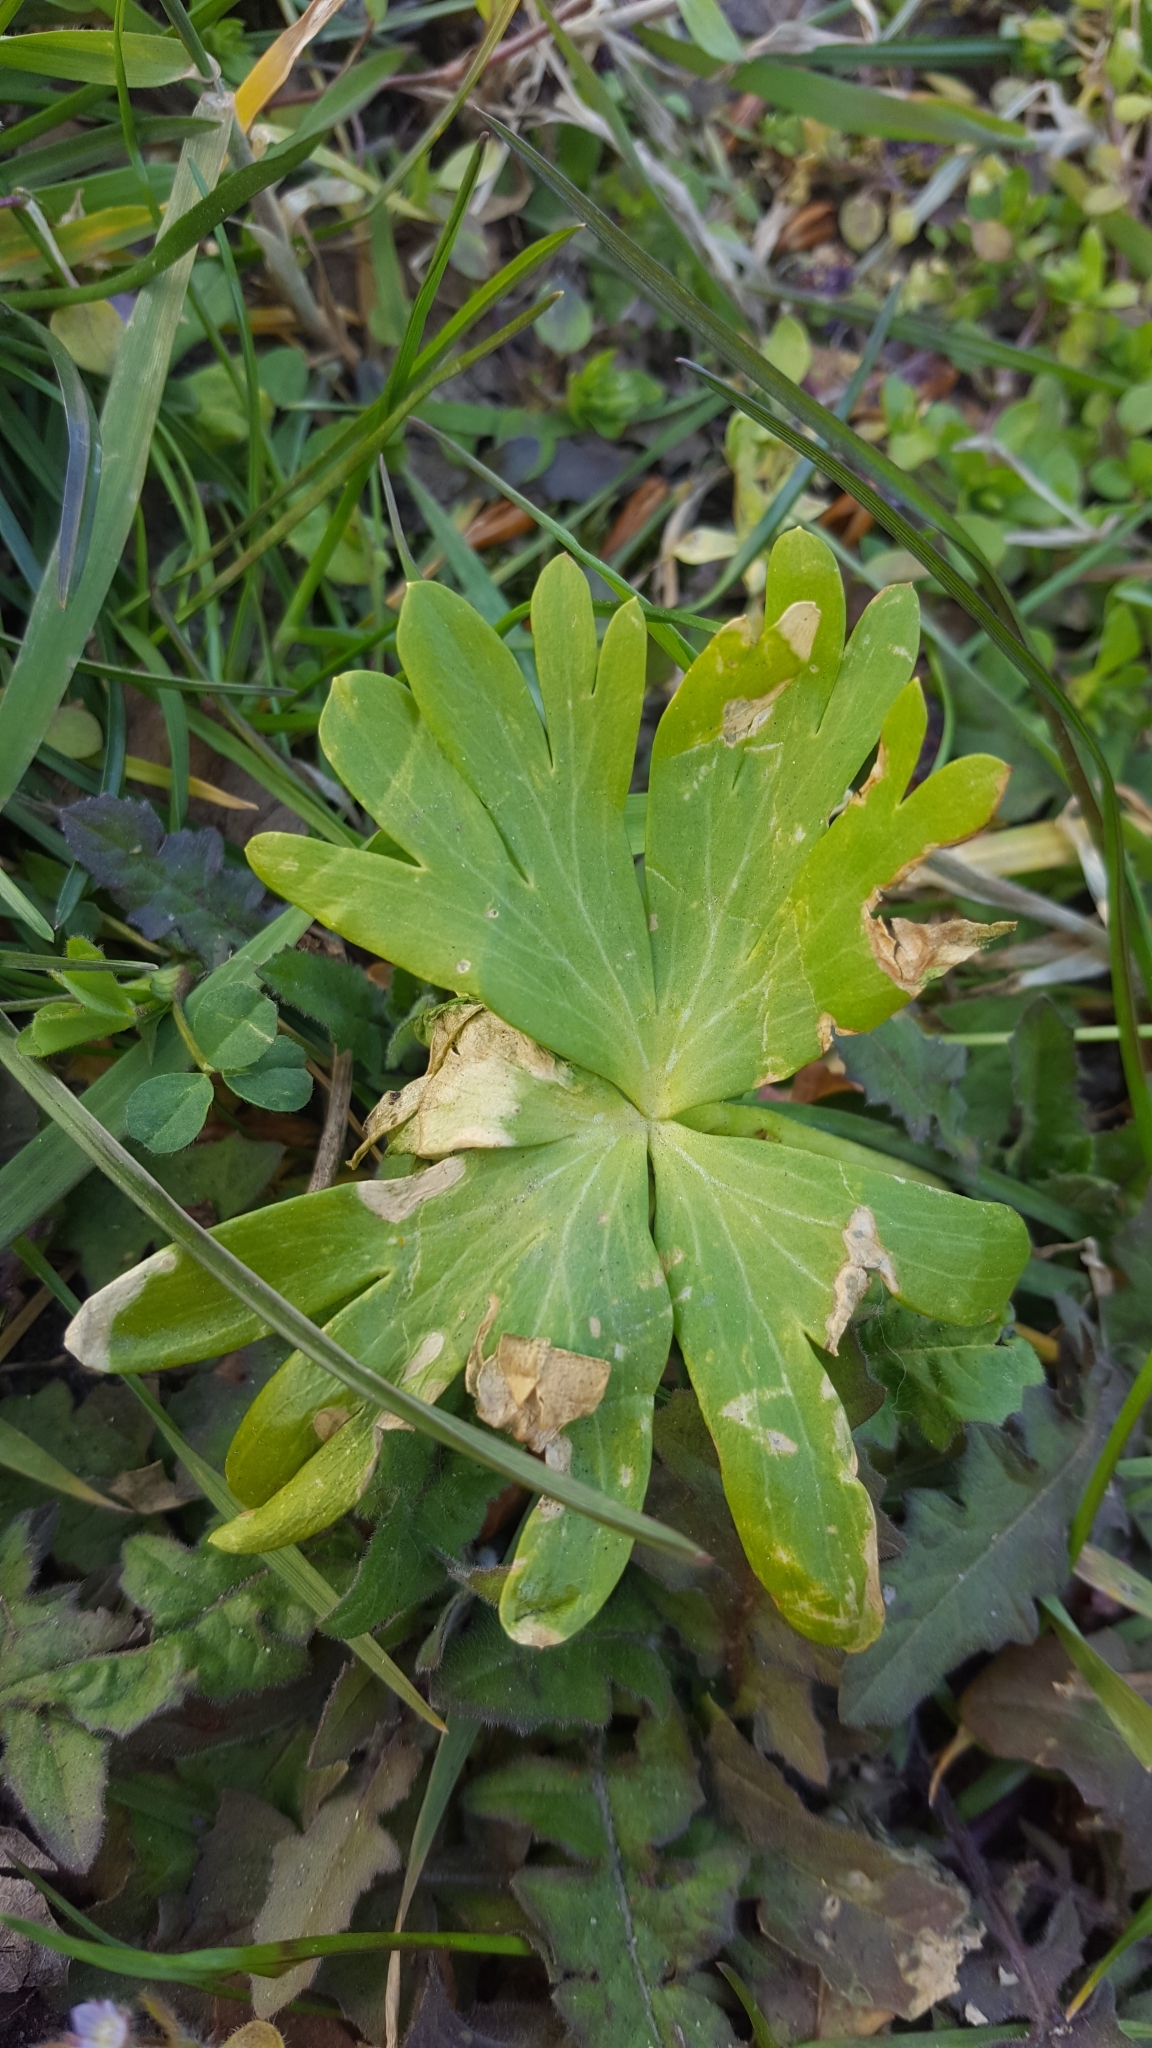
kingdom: Plantae
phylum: Tracheophyta
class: Magnoliopsida
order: Ranunculales
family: Ranunculaceae
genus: Eranthis
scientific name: Eranthis hyemalis
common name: Winter aconite
